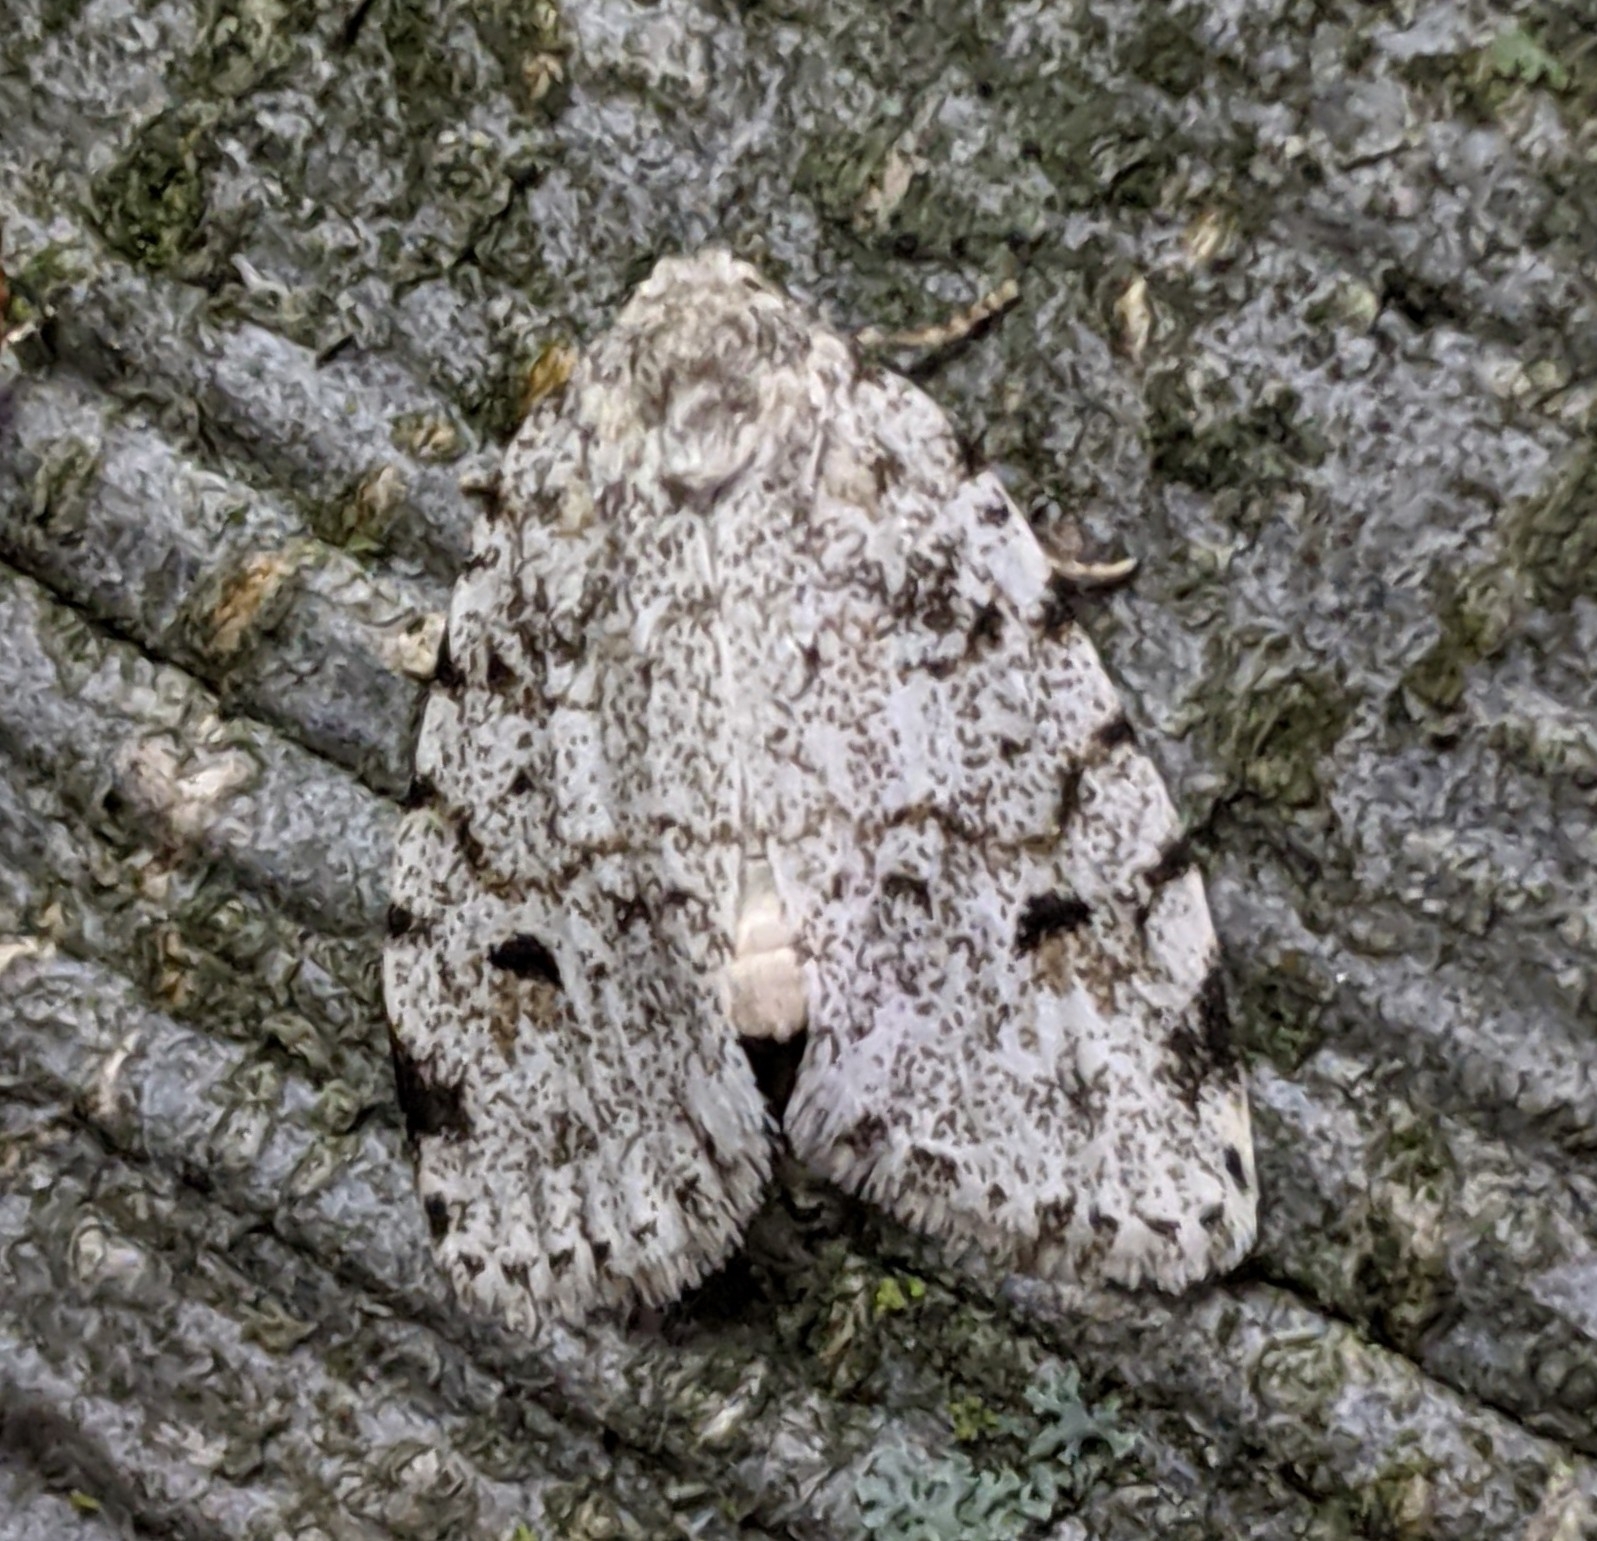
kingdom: Animalia
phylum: Arthropoda
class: Insecta
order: Lepidoptera
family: Erebidae
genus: Clemensia
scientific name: Clemensia albata
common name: Little white lichen moth
